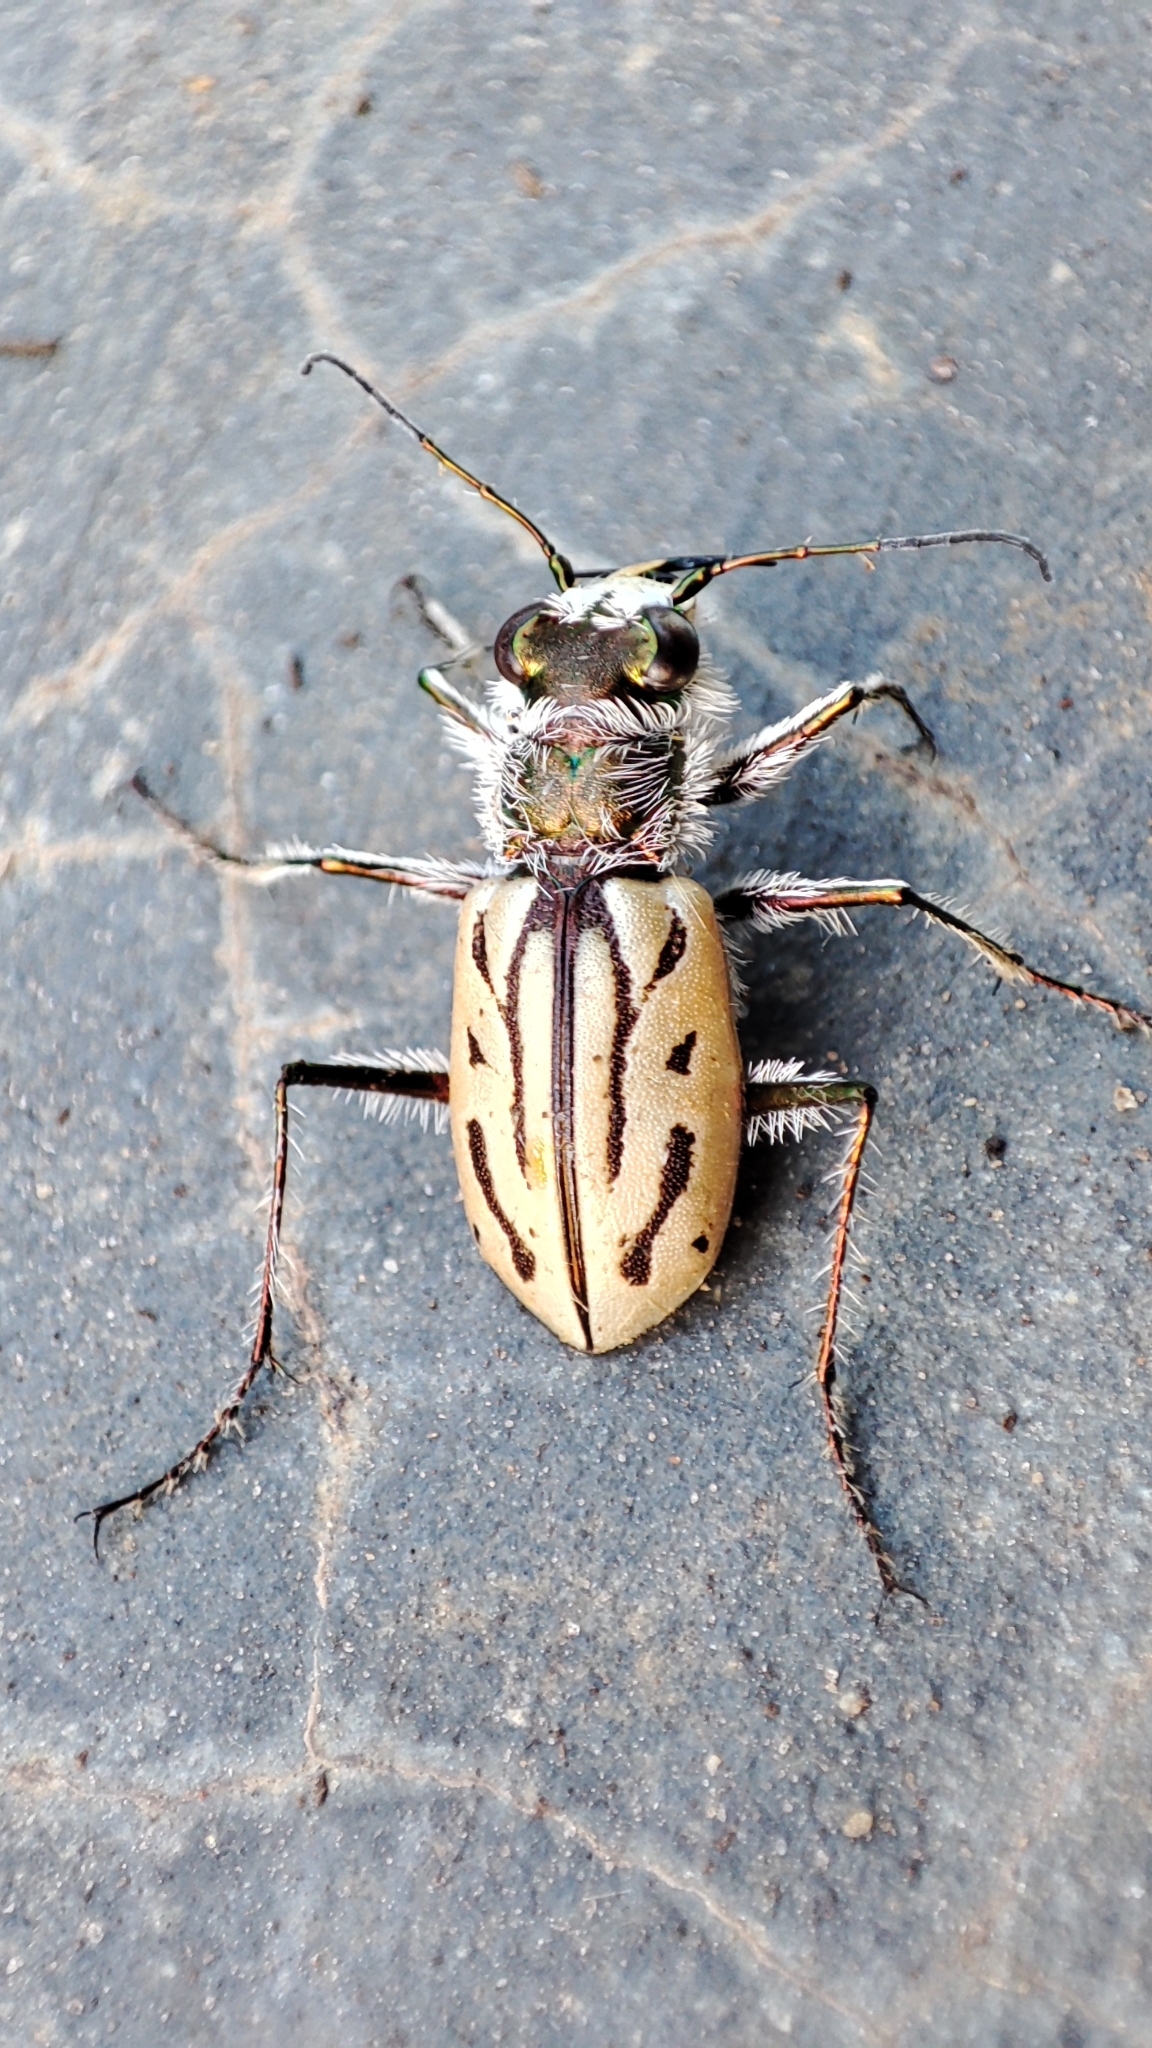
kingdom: Animalia
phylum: Arthropoda
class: Insecta
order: Coleoptera
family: Carabidae
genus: Habrodera
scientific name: Habrodera capensis
